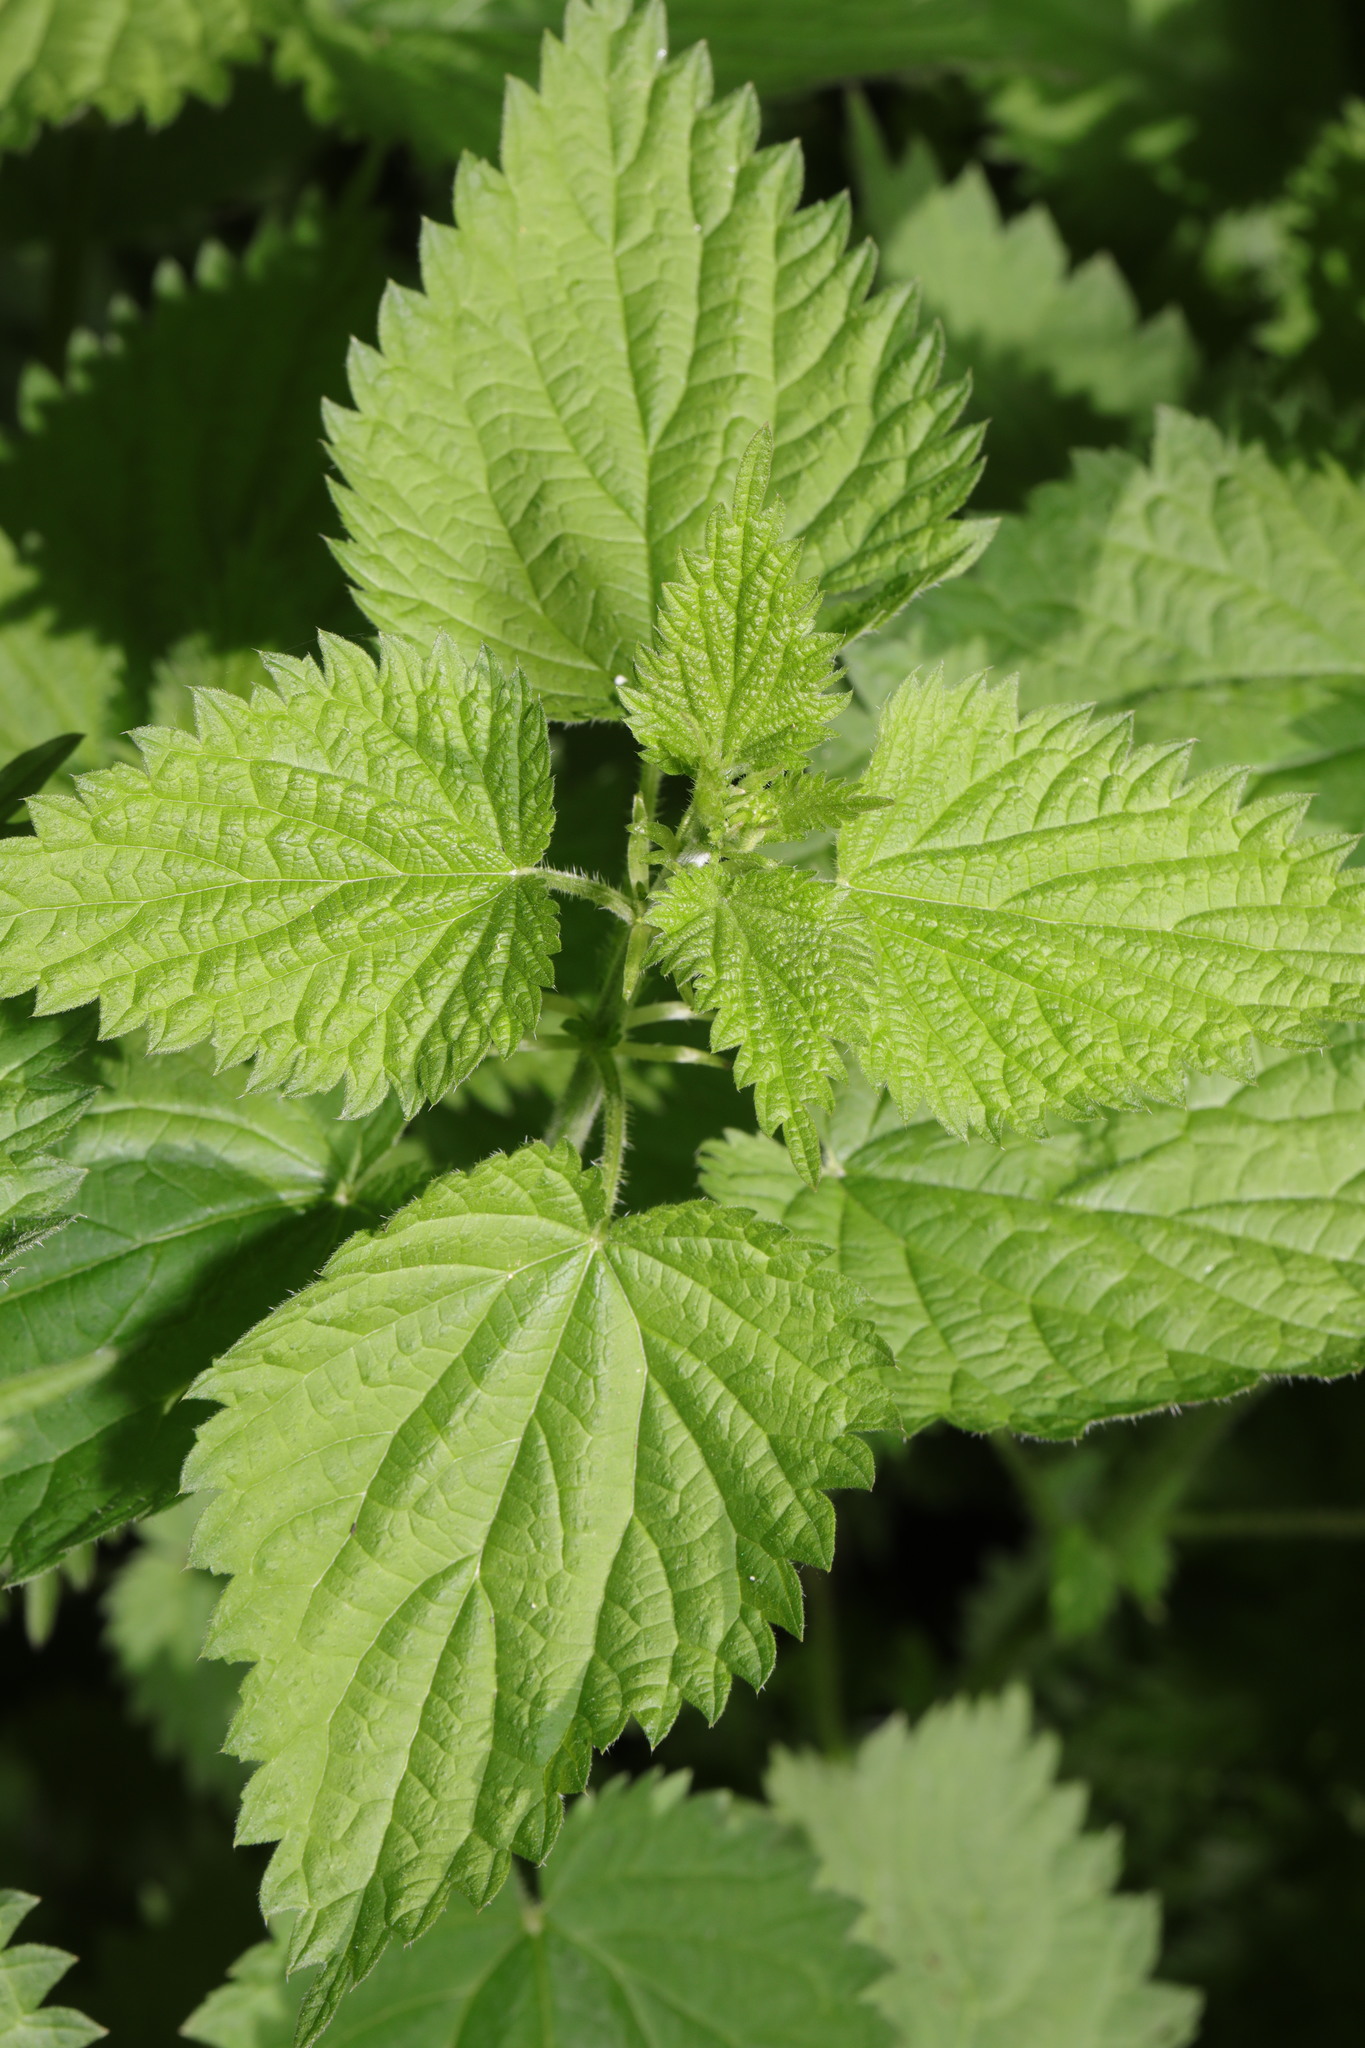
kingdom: Plantae
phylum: Tracheophyta
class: Magnoliopsida
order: Rosales
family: Urticaceae
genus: Urtica
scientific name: Urtica dioica
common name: Common nettle
